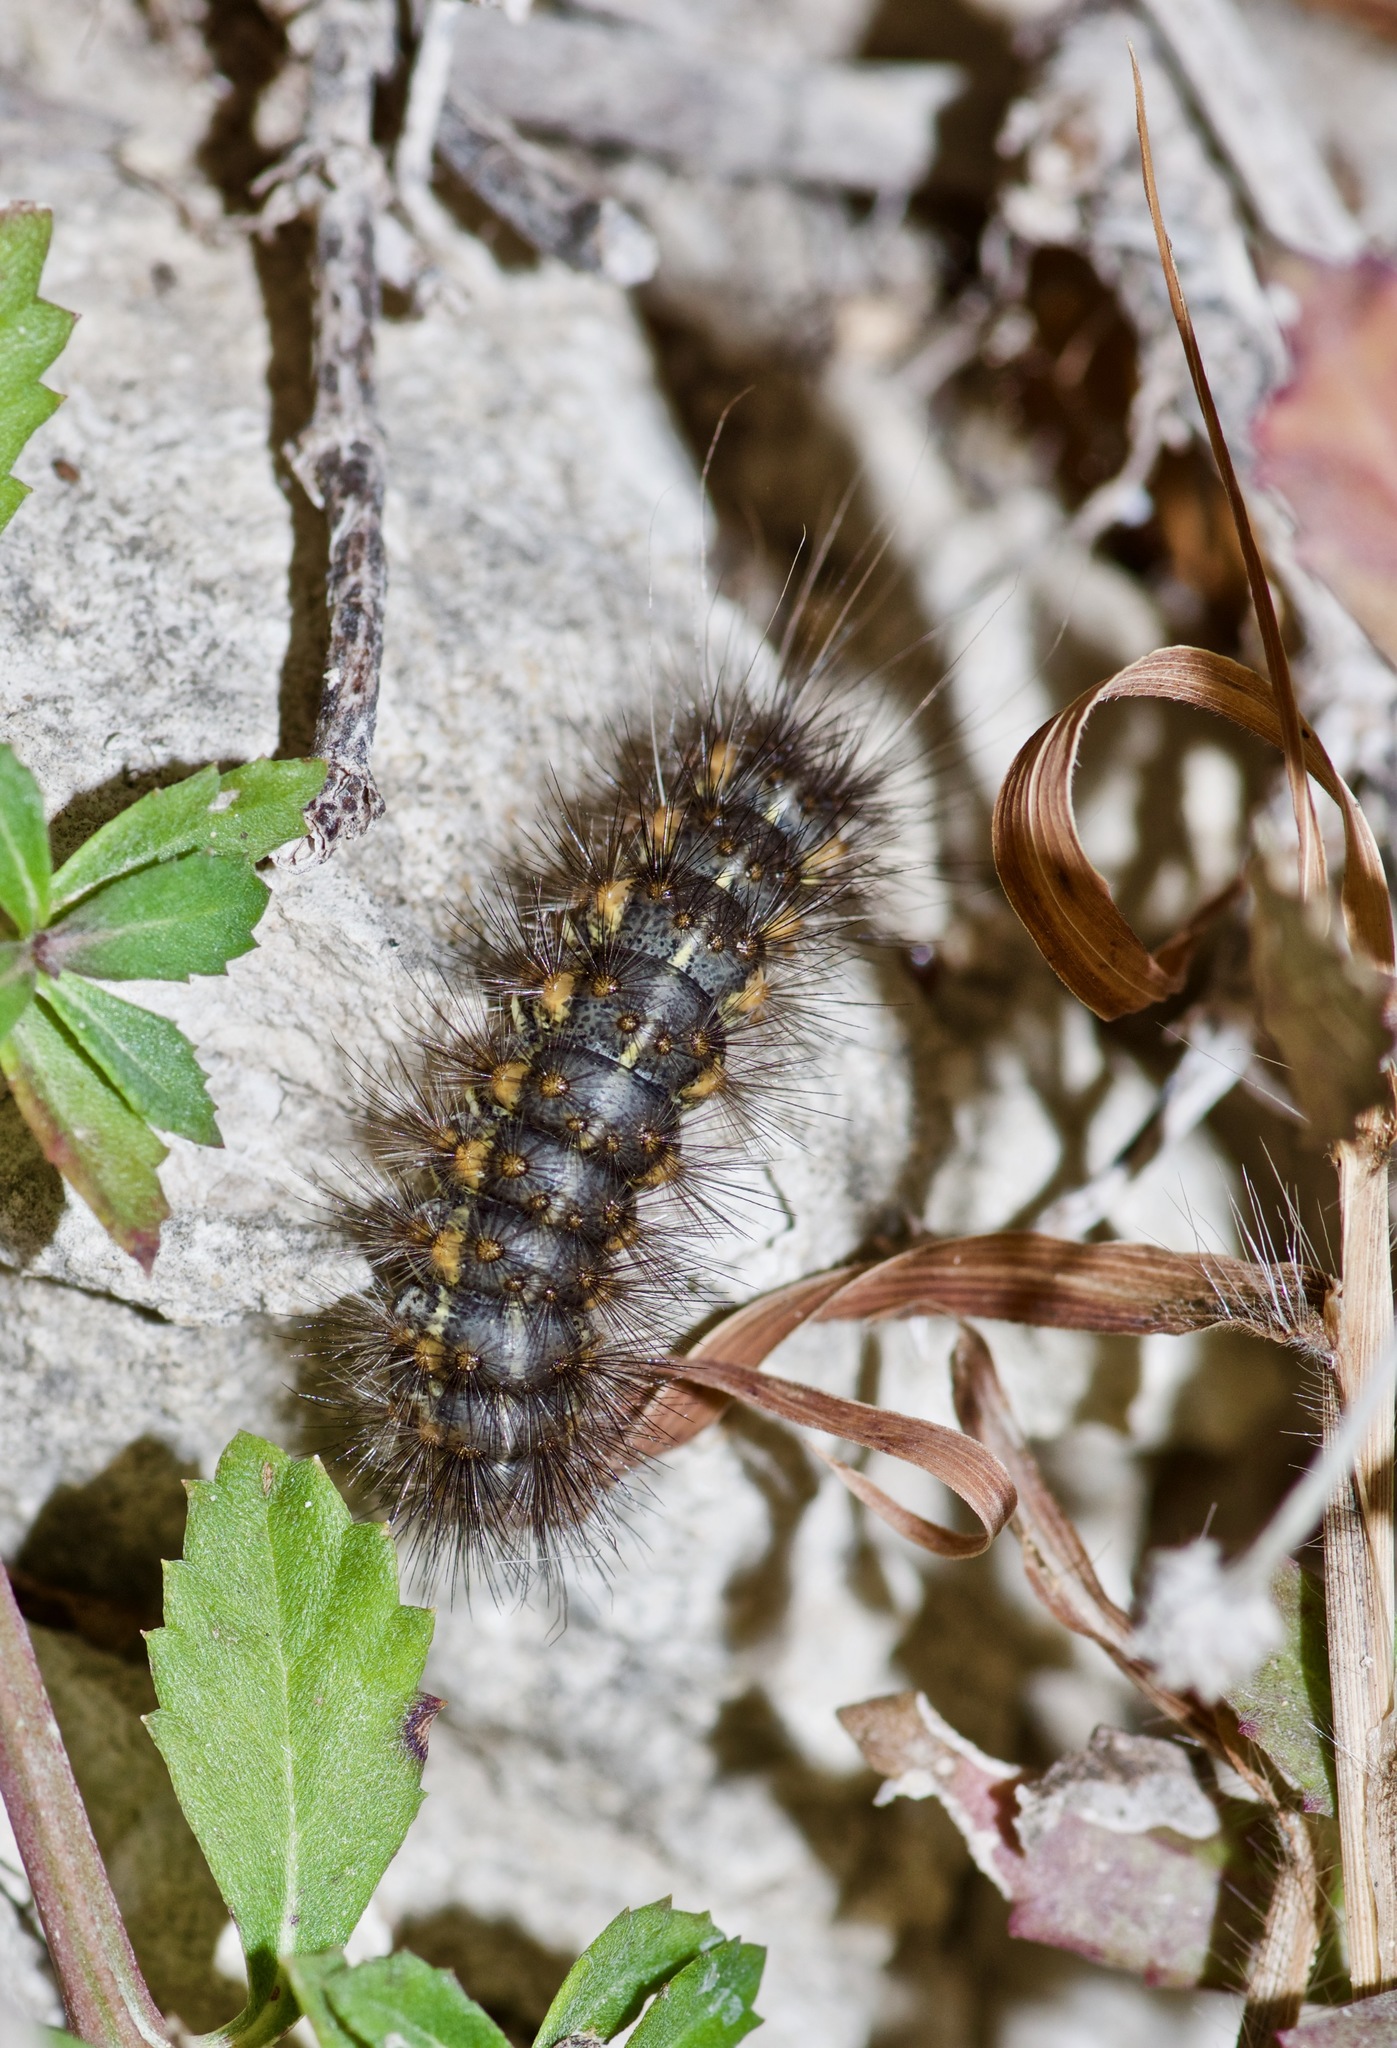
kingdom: Animalia
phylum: Arthropoda
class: Insecta
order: Lepidoptera
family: Erebidae
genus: Estigmene
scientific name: Estigmene acrea
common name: Salt marsh moth
